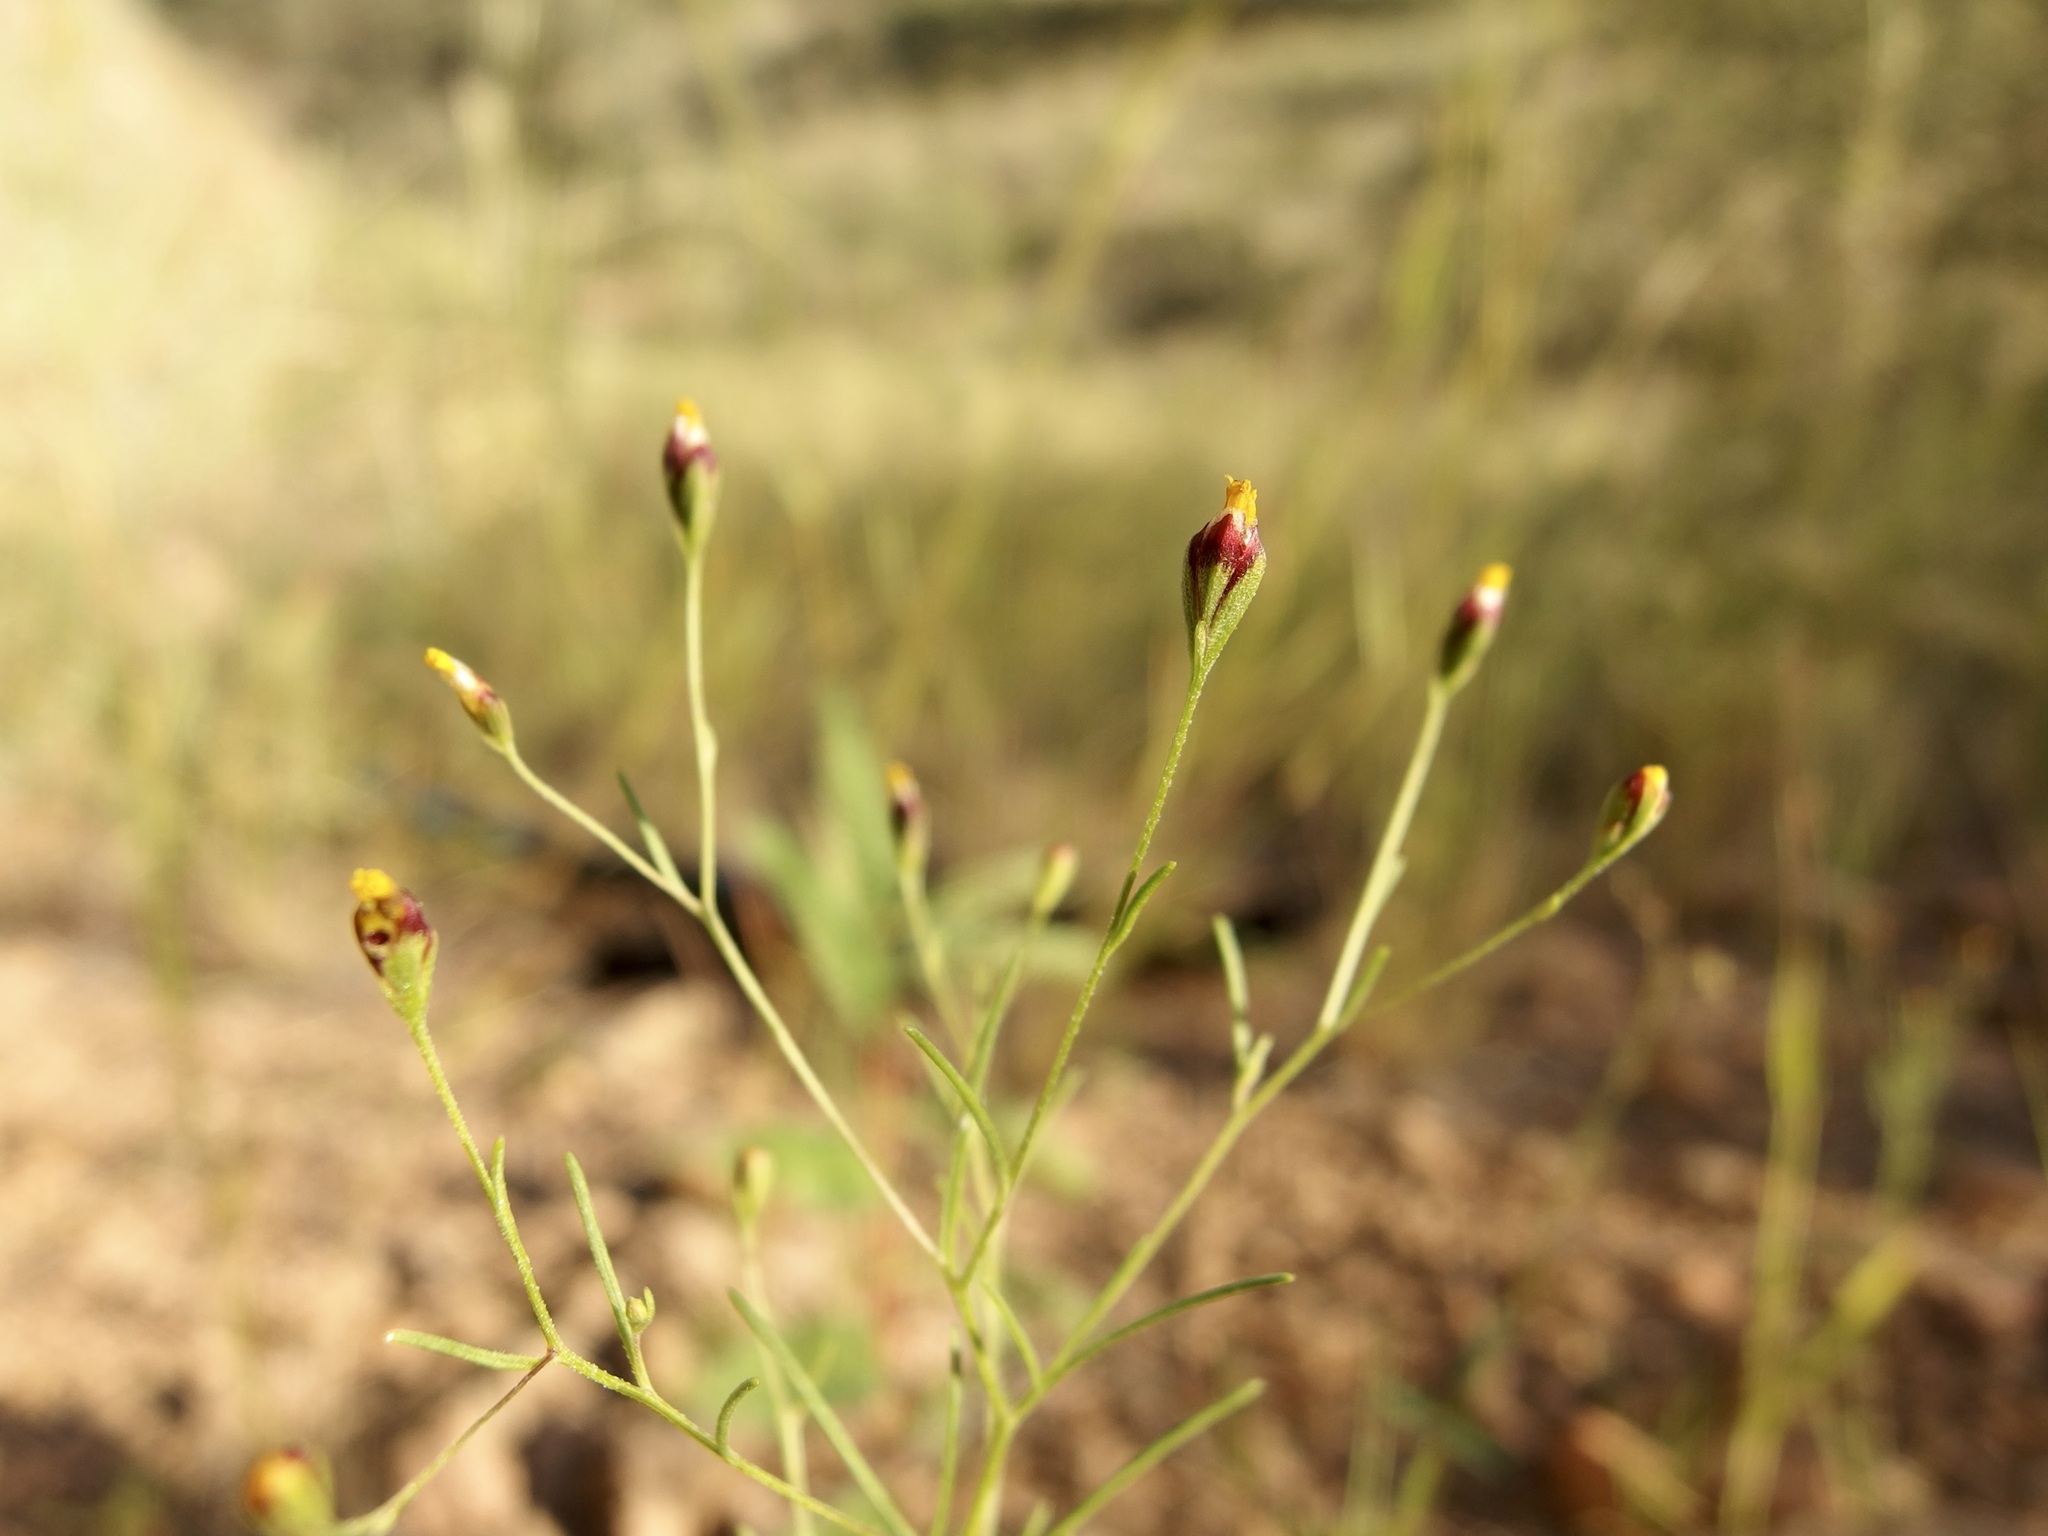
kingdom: Plantae
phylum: Tracheophyta
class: Magnoliopsida
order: Asterales
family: Asteraceae
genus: Schkuhria
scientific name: Schkuhria pinnata
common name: Dwarf marigold
